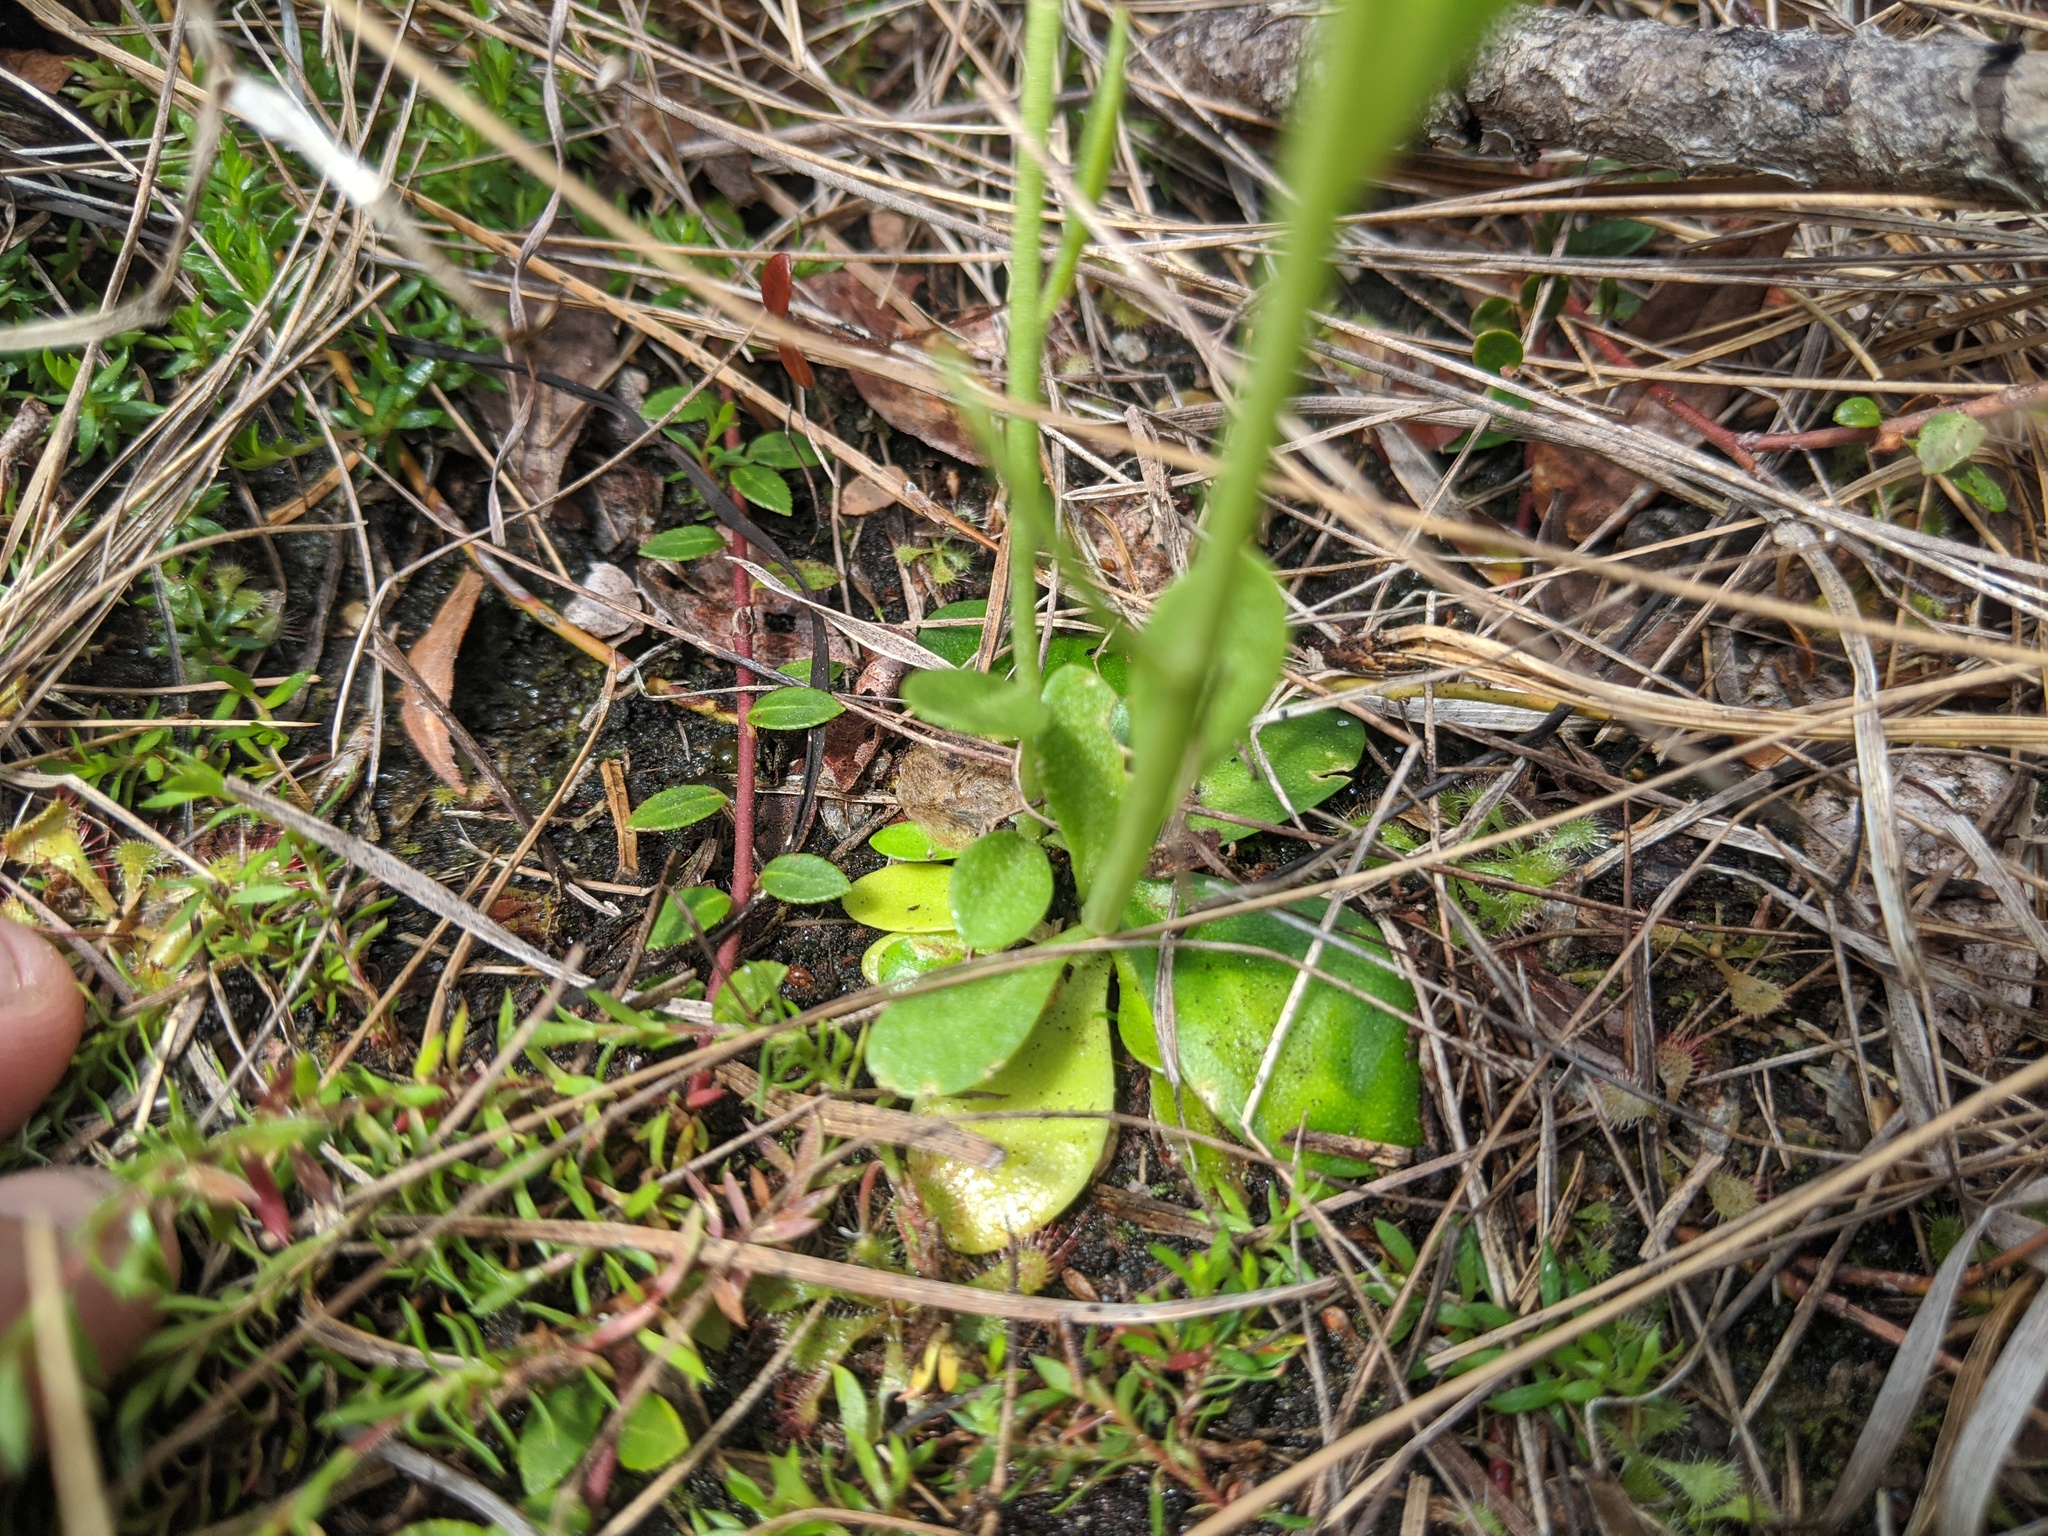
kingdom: Plantae
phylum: Tracheophyta
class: Magnoliopsida
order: Fabales
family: Polygalaceae
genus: Polygala
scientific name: Polygala lutea
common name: Orange milkwort
